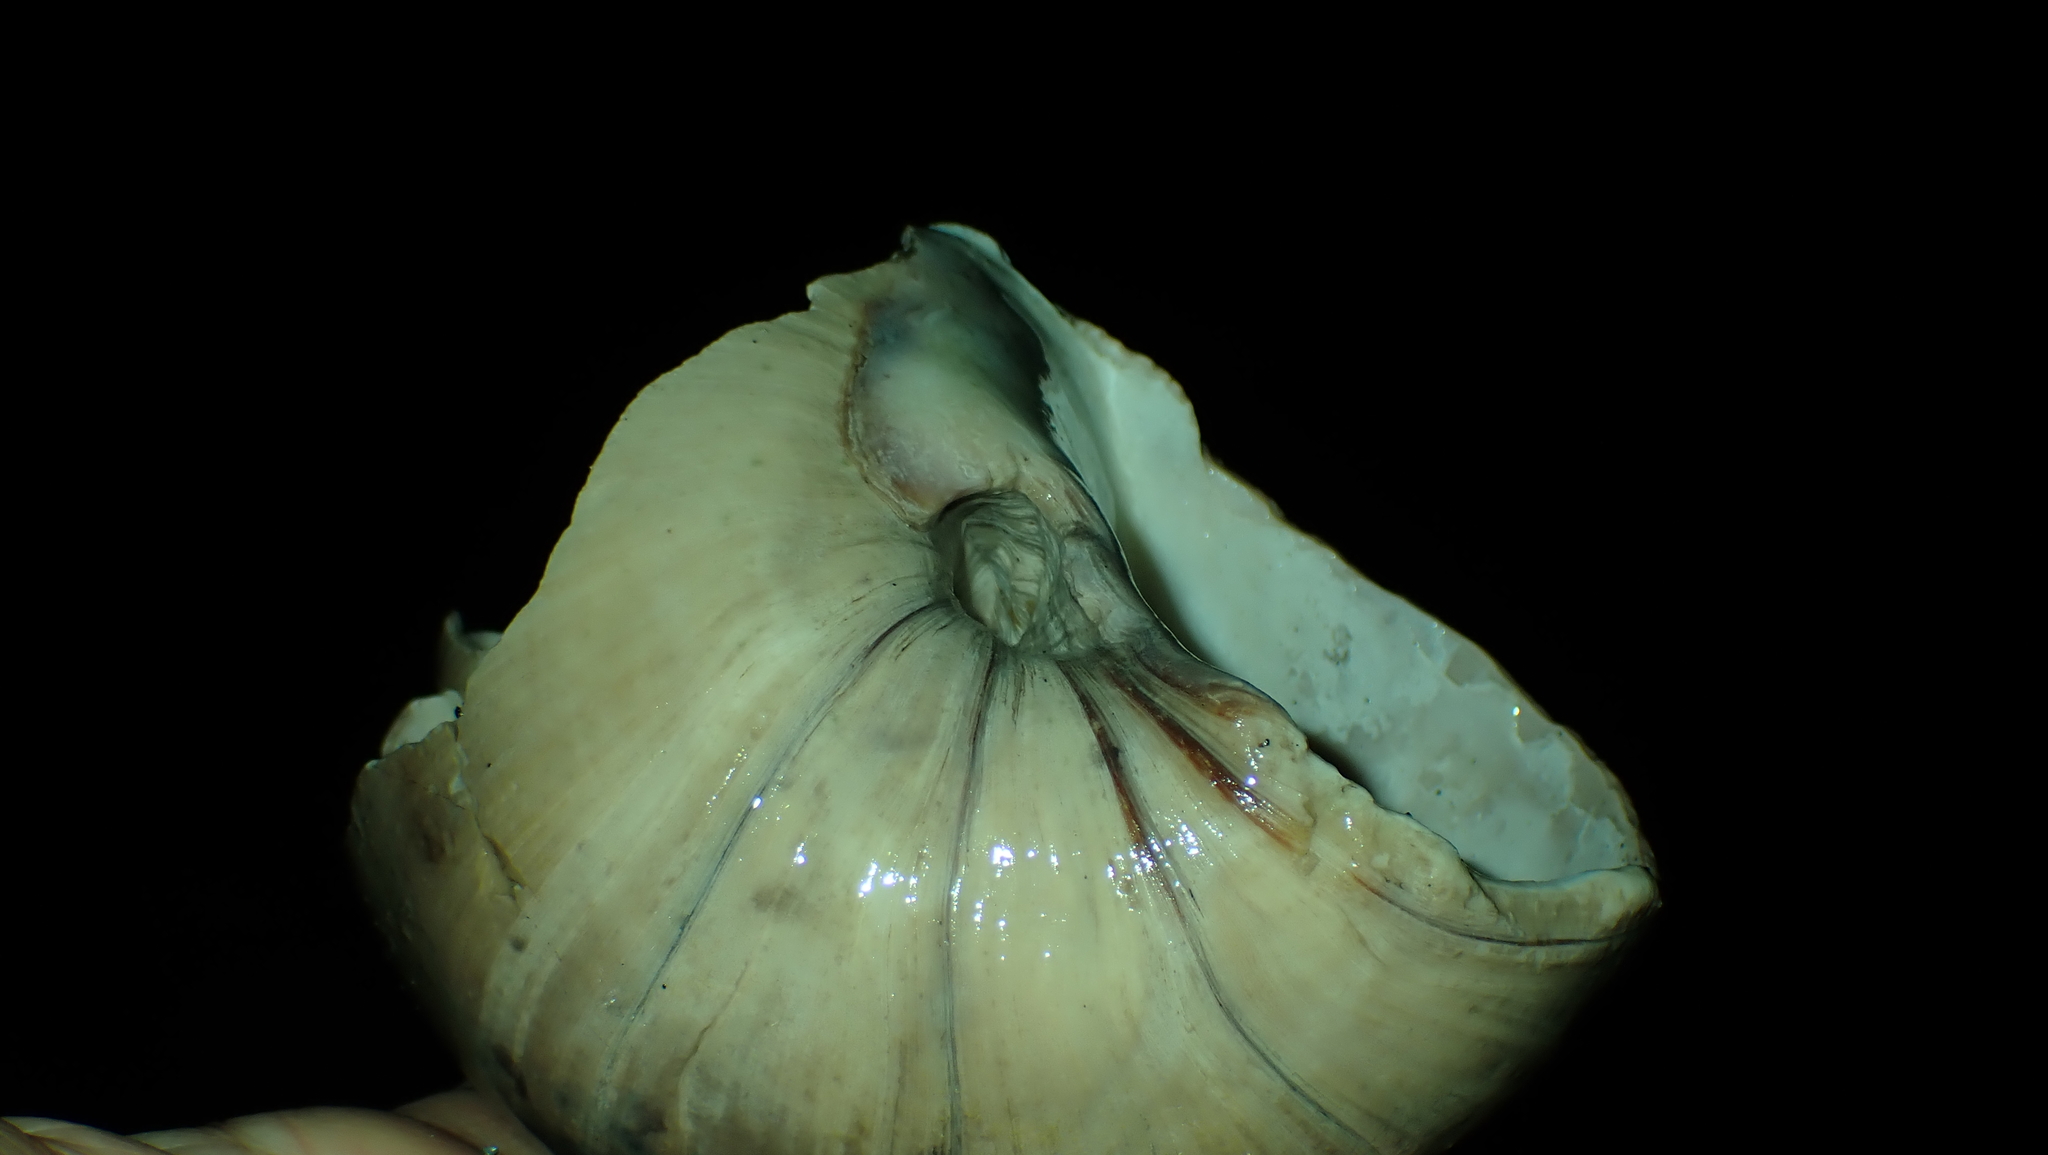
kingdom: Animalia
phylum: Mollusca
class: Gastropoda
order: Littorinimorpha
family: Naticidae
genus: Neverita
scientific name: Neverita lewisii
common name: Lewis' moonsnail
